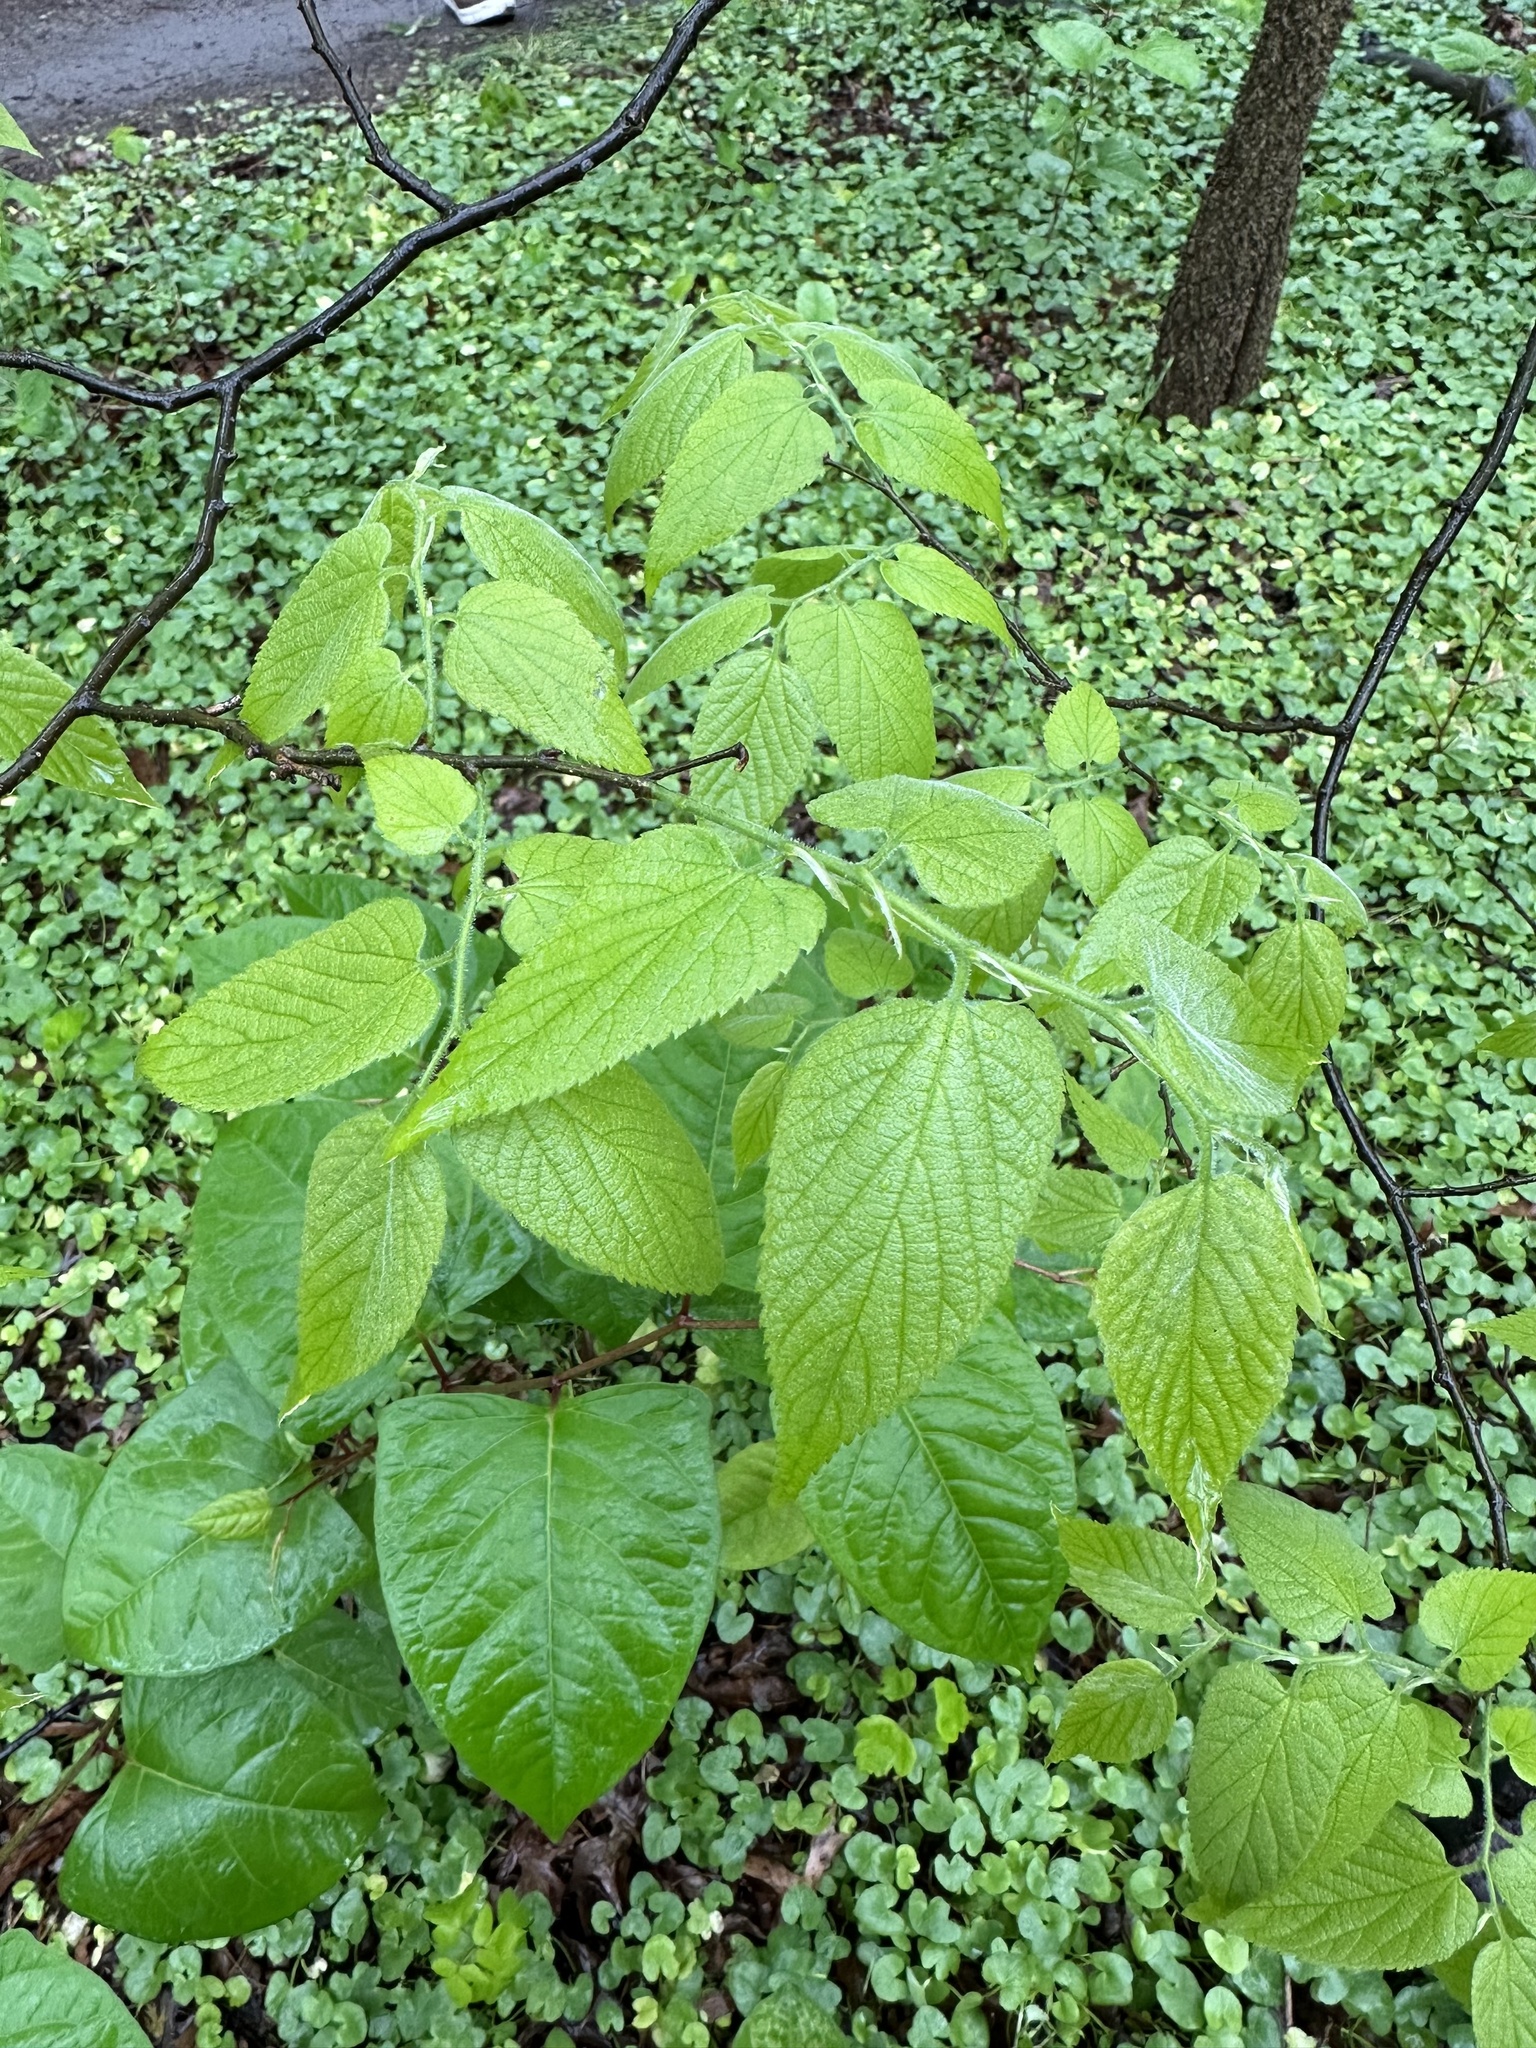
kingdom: Plantae
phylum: Tracheophyta
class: Magnoliopsida
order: Rosales
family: Cannabaceae
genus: Celtis
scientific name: Celtis occidentalis
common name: Common hackberry
